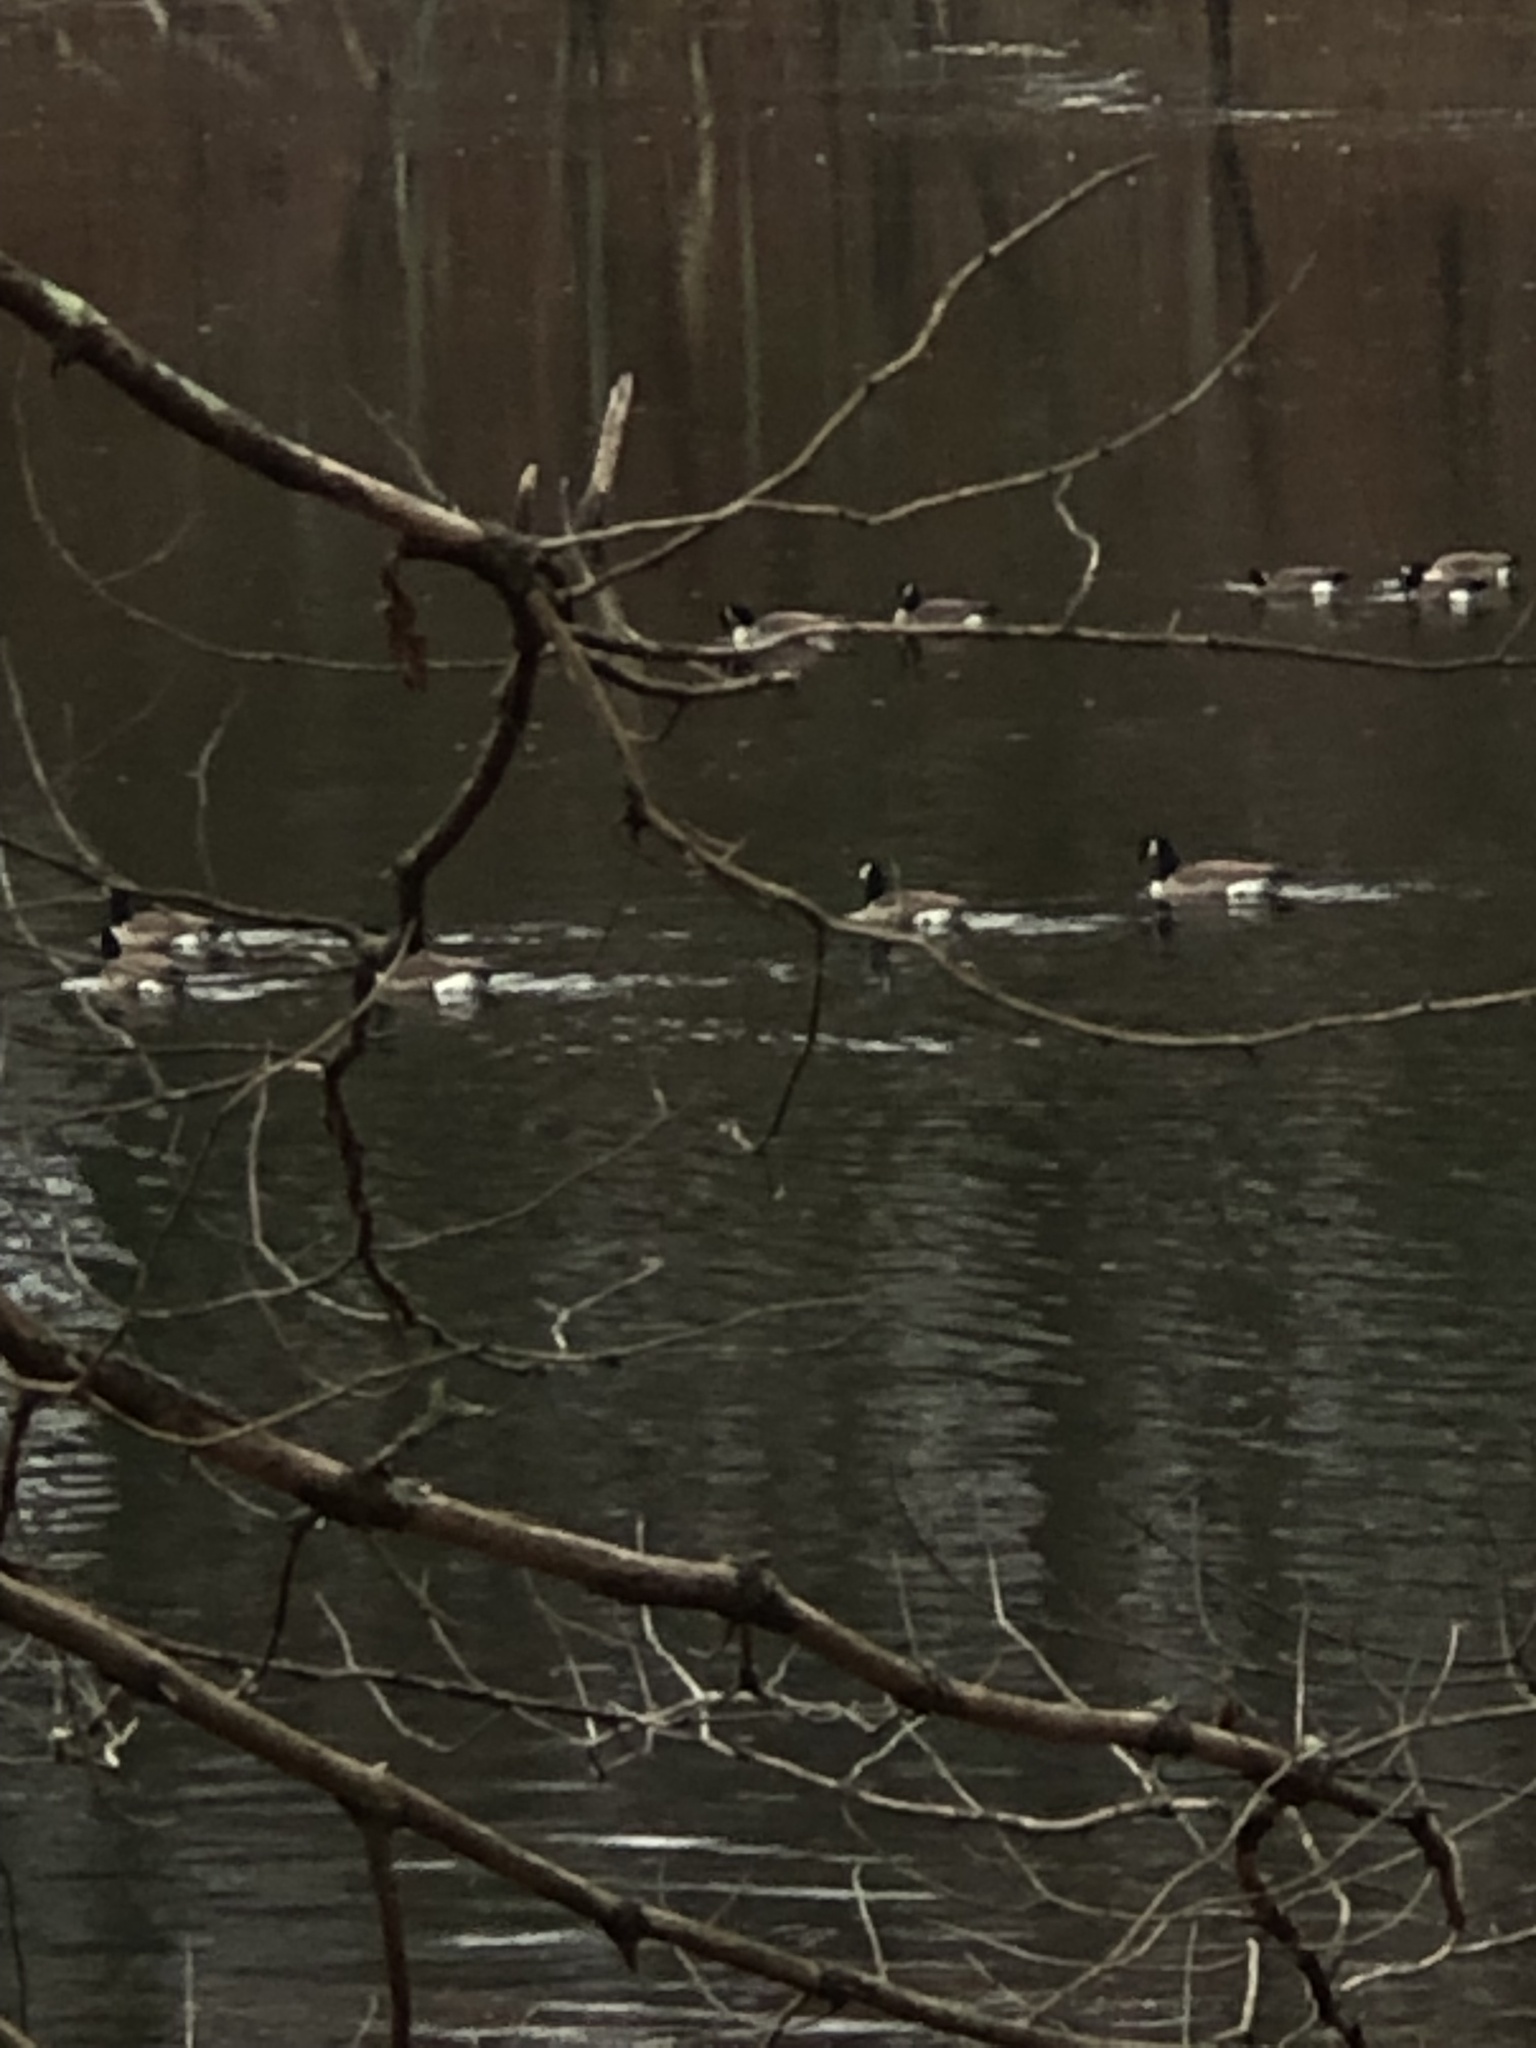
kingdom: Animalia
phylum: Chordata
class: Aves
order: Anseriformes
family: Anatidae
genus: Branta
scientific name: Branta canadensis
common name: Canada goose
